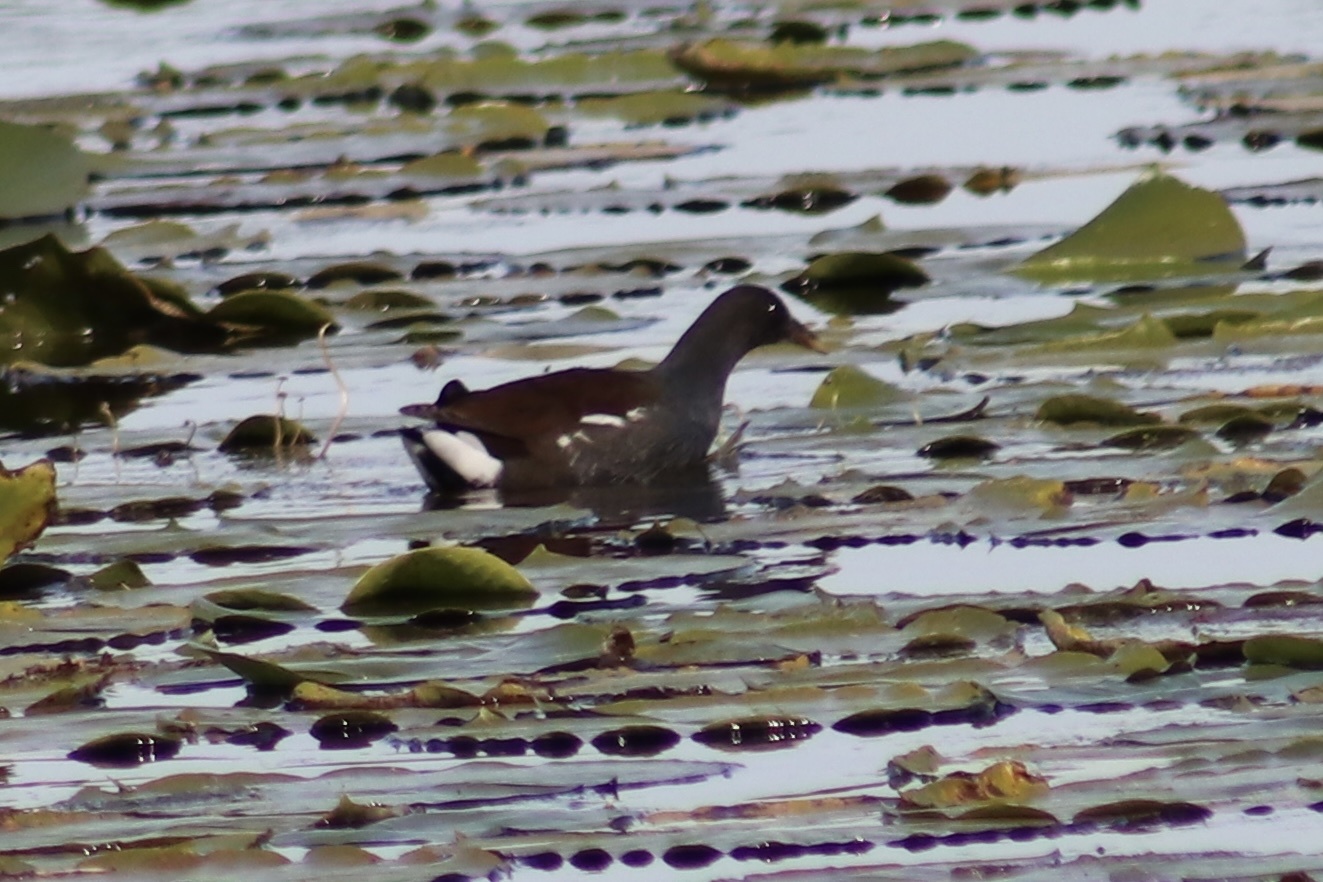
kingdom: Animalia
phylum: Chordata
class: Aves
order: Gruiformes
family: Rallidae
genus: Gallinula
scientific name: Gallinula chloropus
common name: Common moorhen
